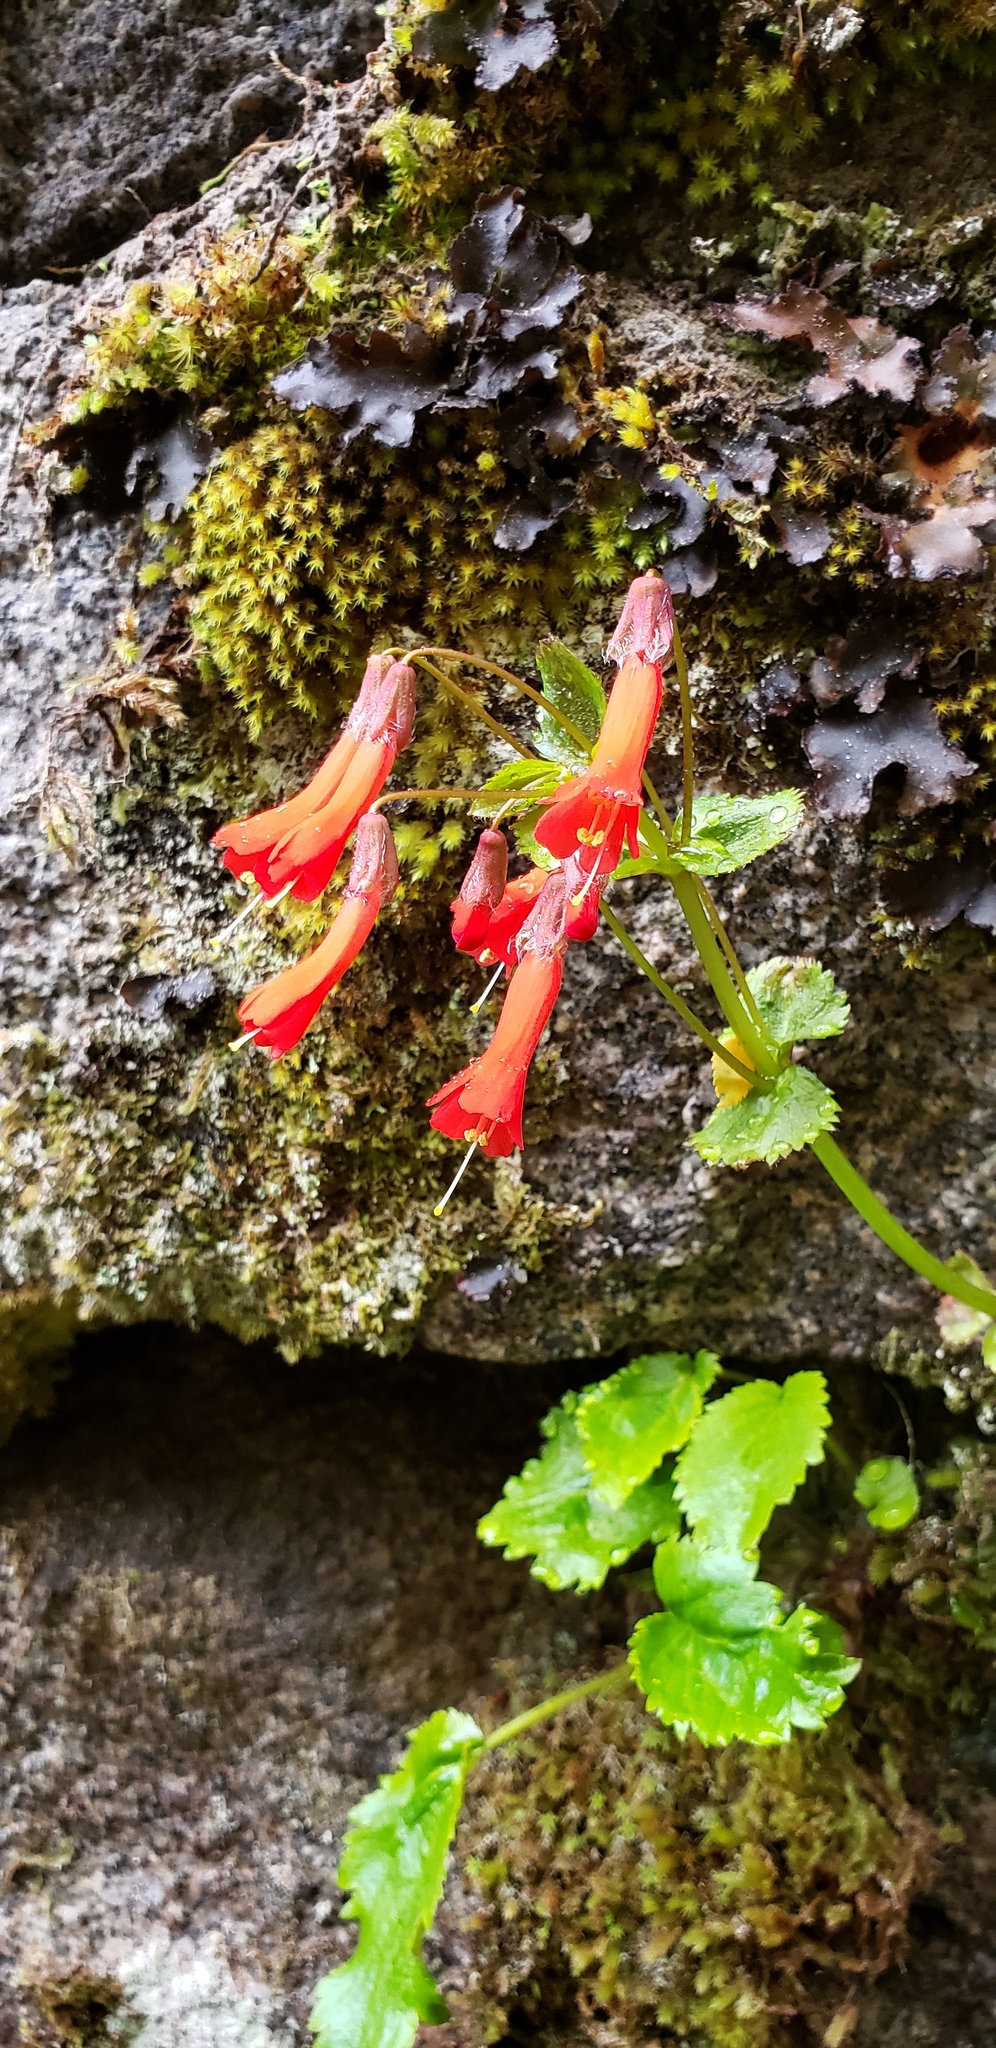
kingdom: Plantae
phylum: Tracheophyta
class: Magnoliopsida
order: Lamiales
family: Plantaginaceae
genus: Ourisia
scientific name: Ourisia ruellioides
